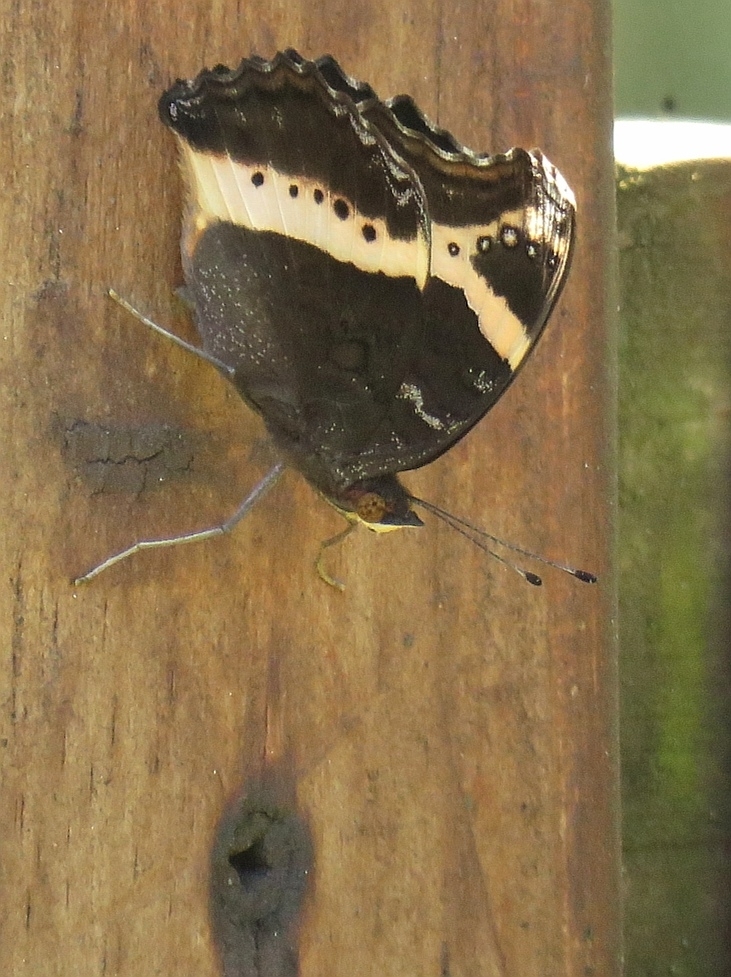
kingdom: Animalia
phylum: Arthropoda
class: Insecta
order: Lepidoptera
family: Nymphalidae
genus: Junonia
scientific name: Junonia archesia
